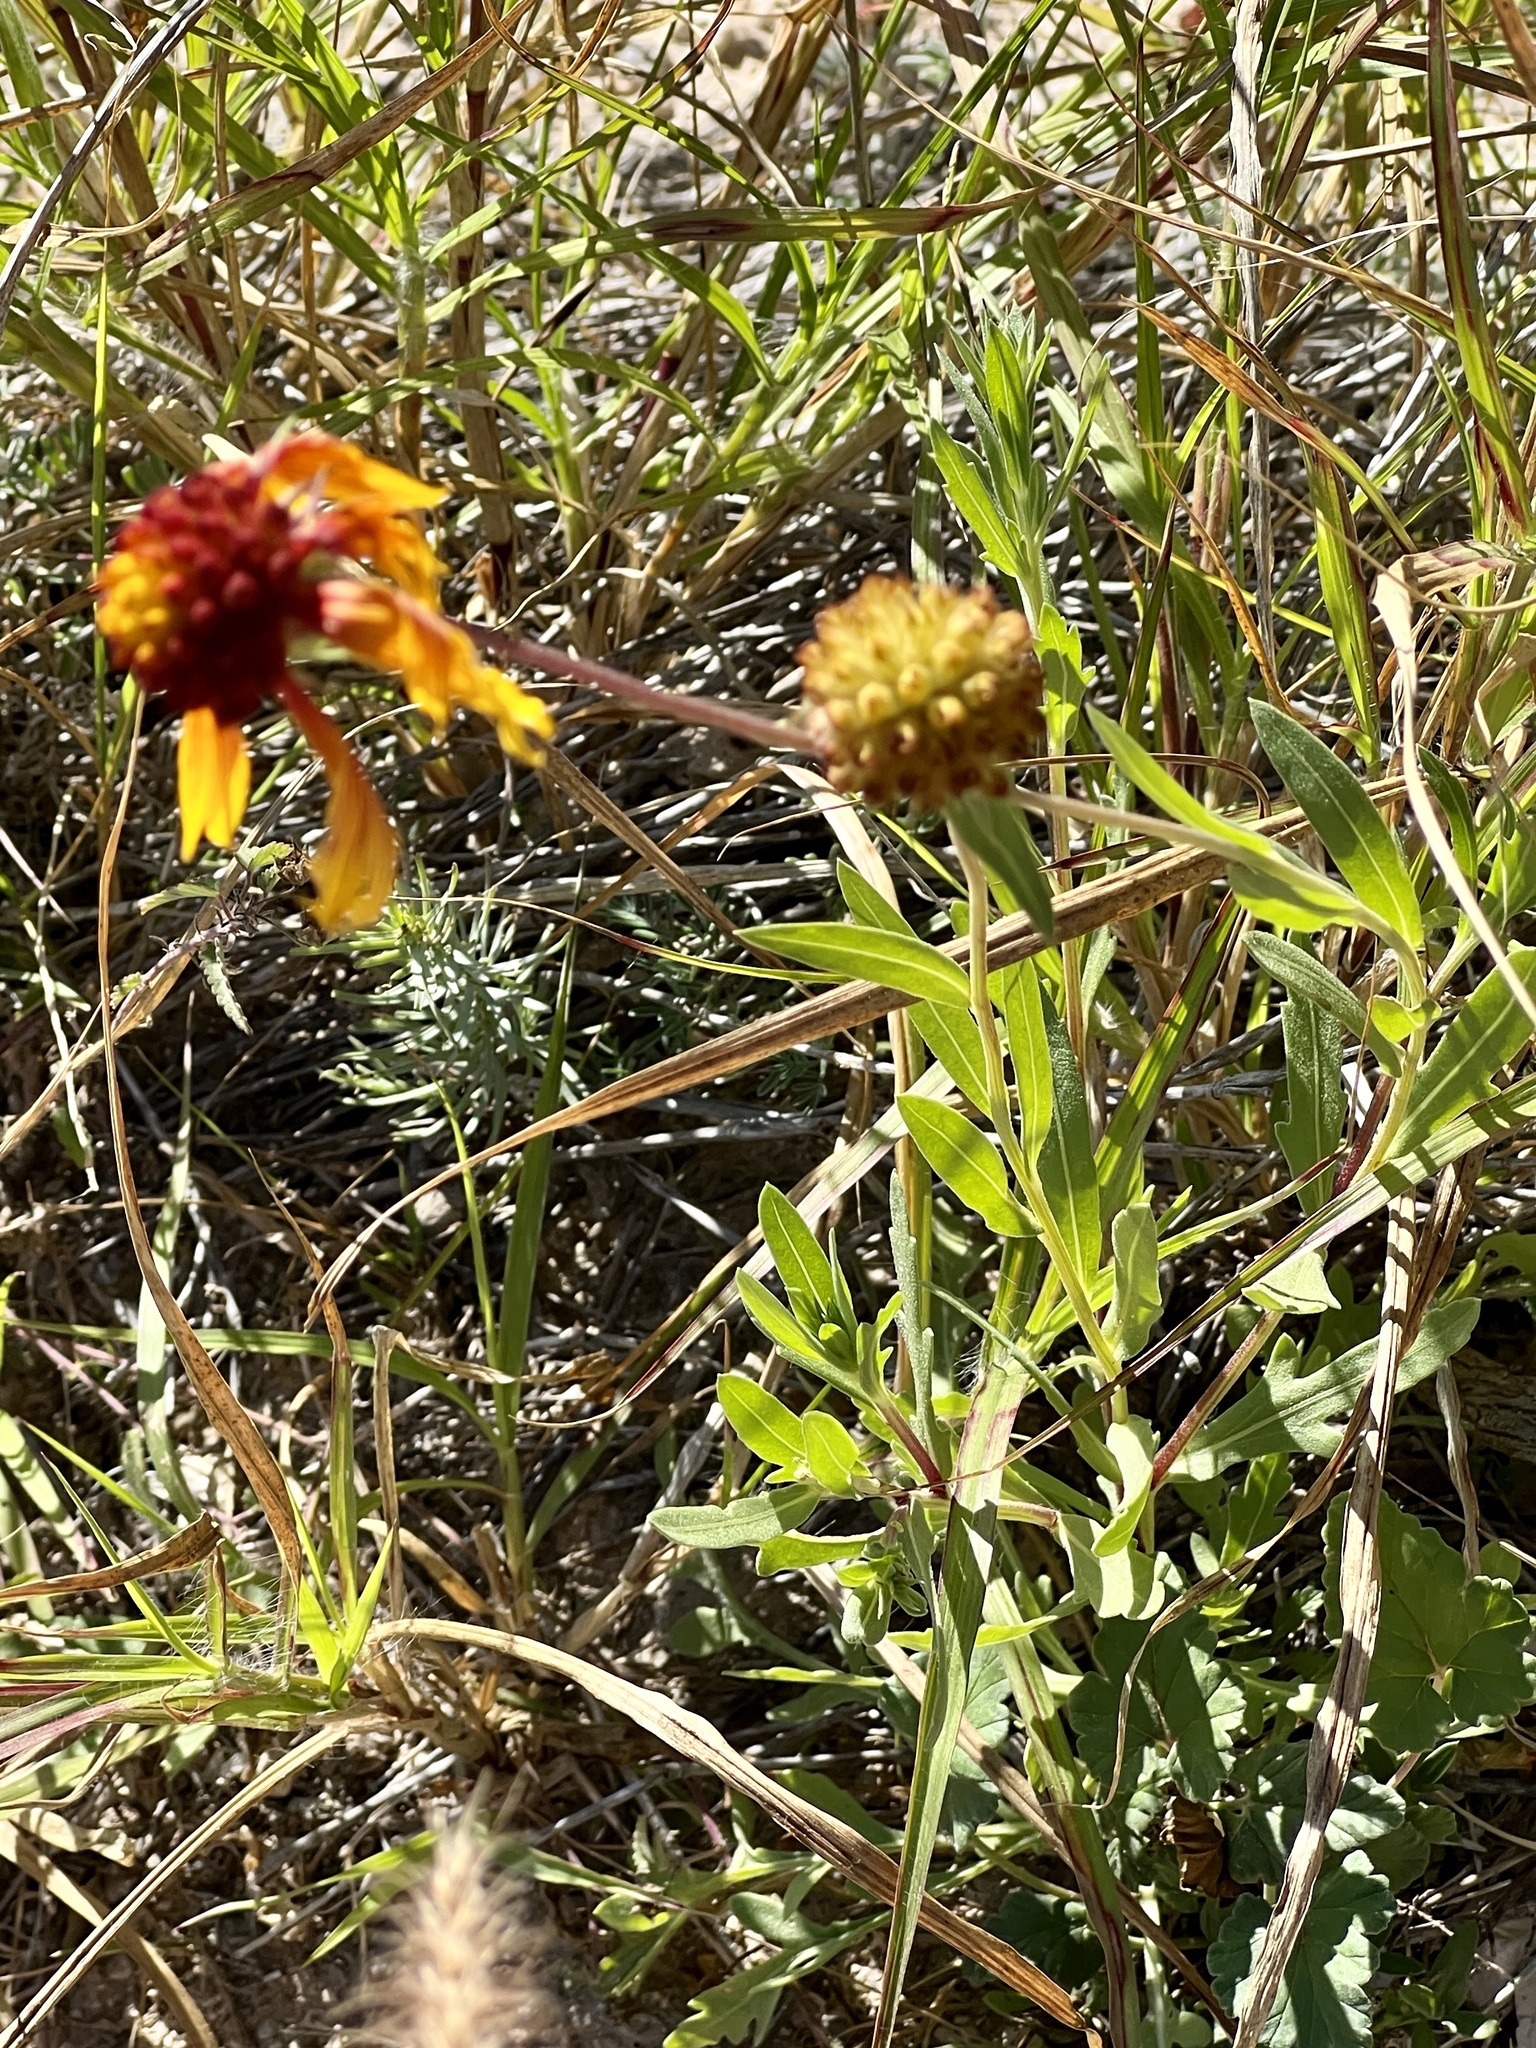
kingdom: Plantae
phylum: Tracheophyta
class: Magnoliopsida
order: Asterales
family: Asteraceae
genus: Gaillardia
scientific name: Gaillardia pulchella
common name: Firewheel
